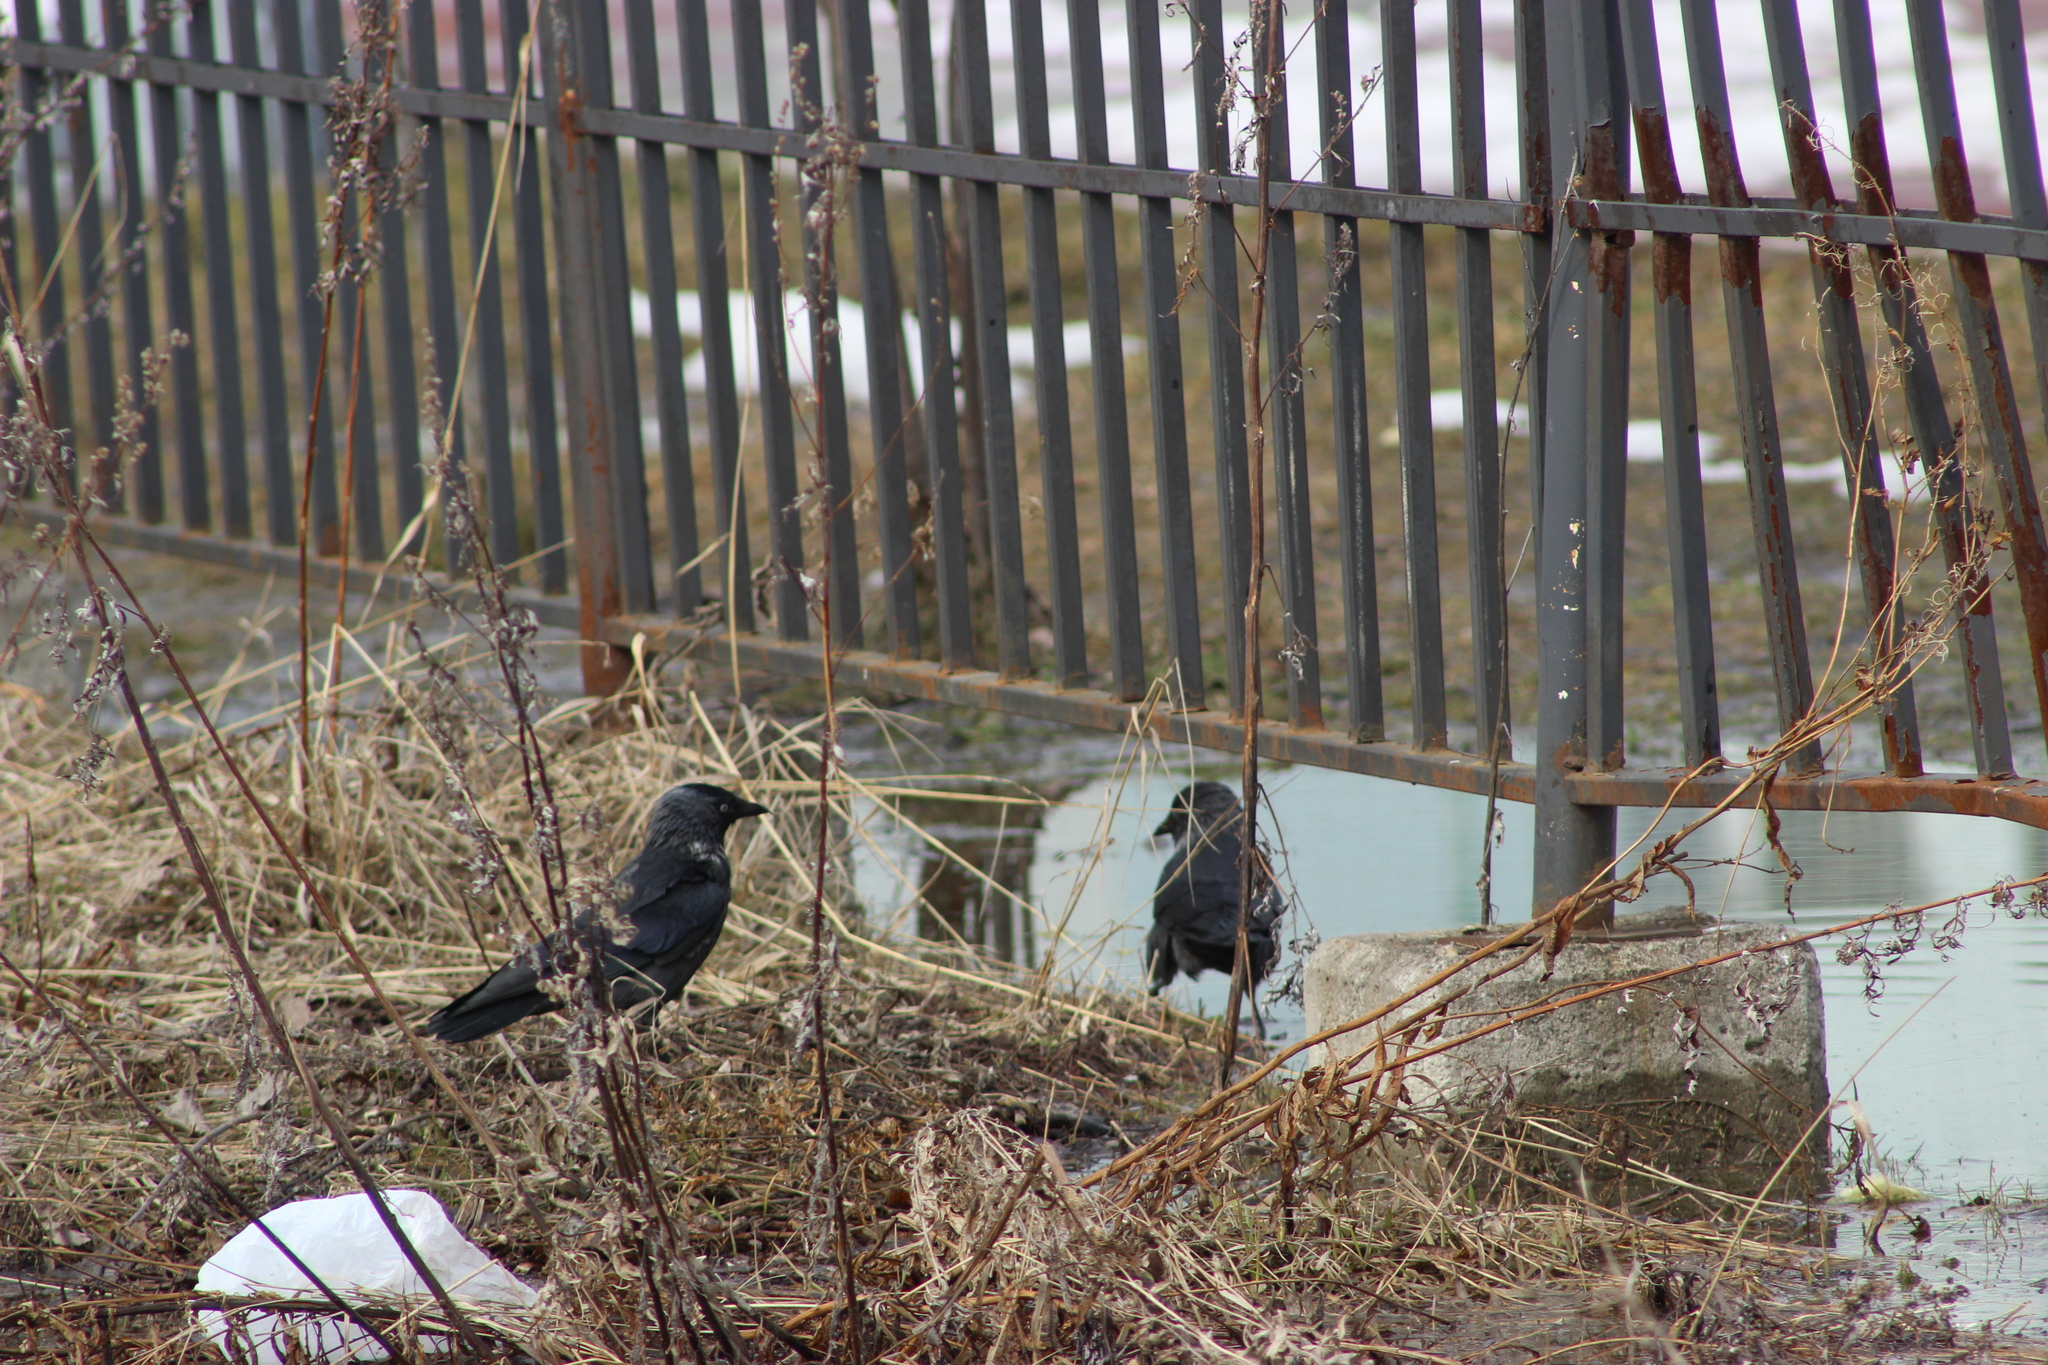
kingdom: Animalia
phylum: Chordata
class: Aves
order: Passeriformes
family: Corvidae
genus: Coloeus
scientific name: Coloeus monedula
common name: Western jackdaw
